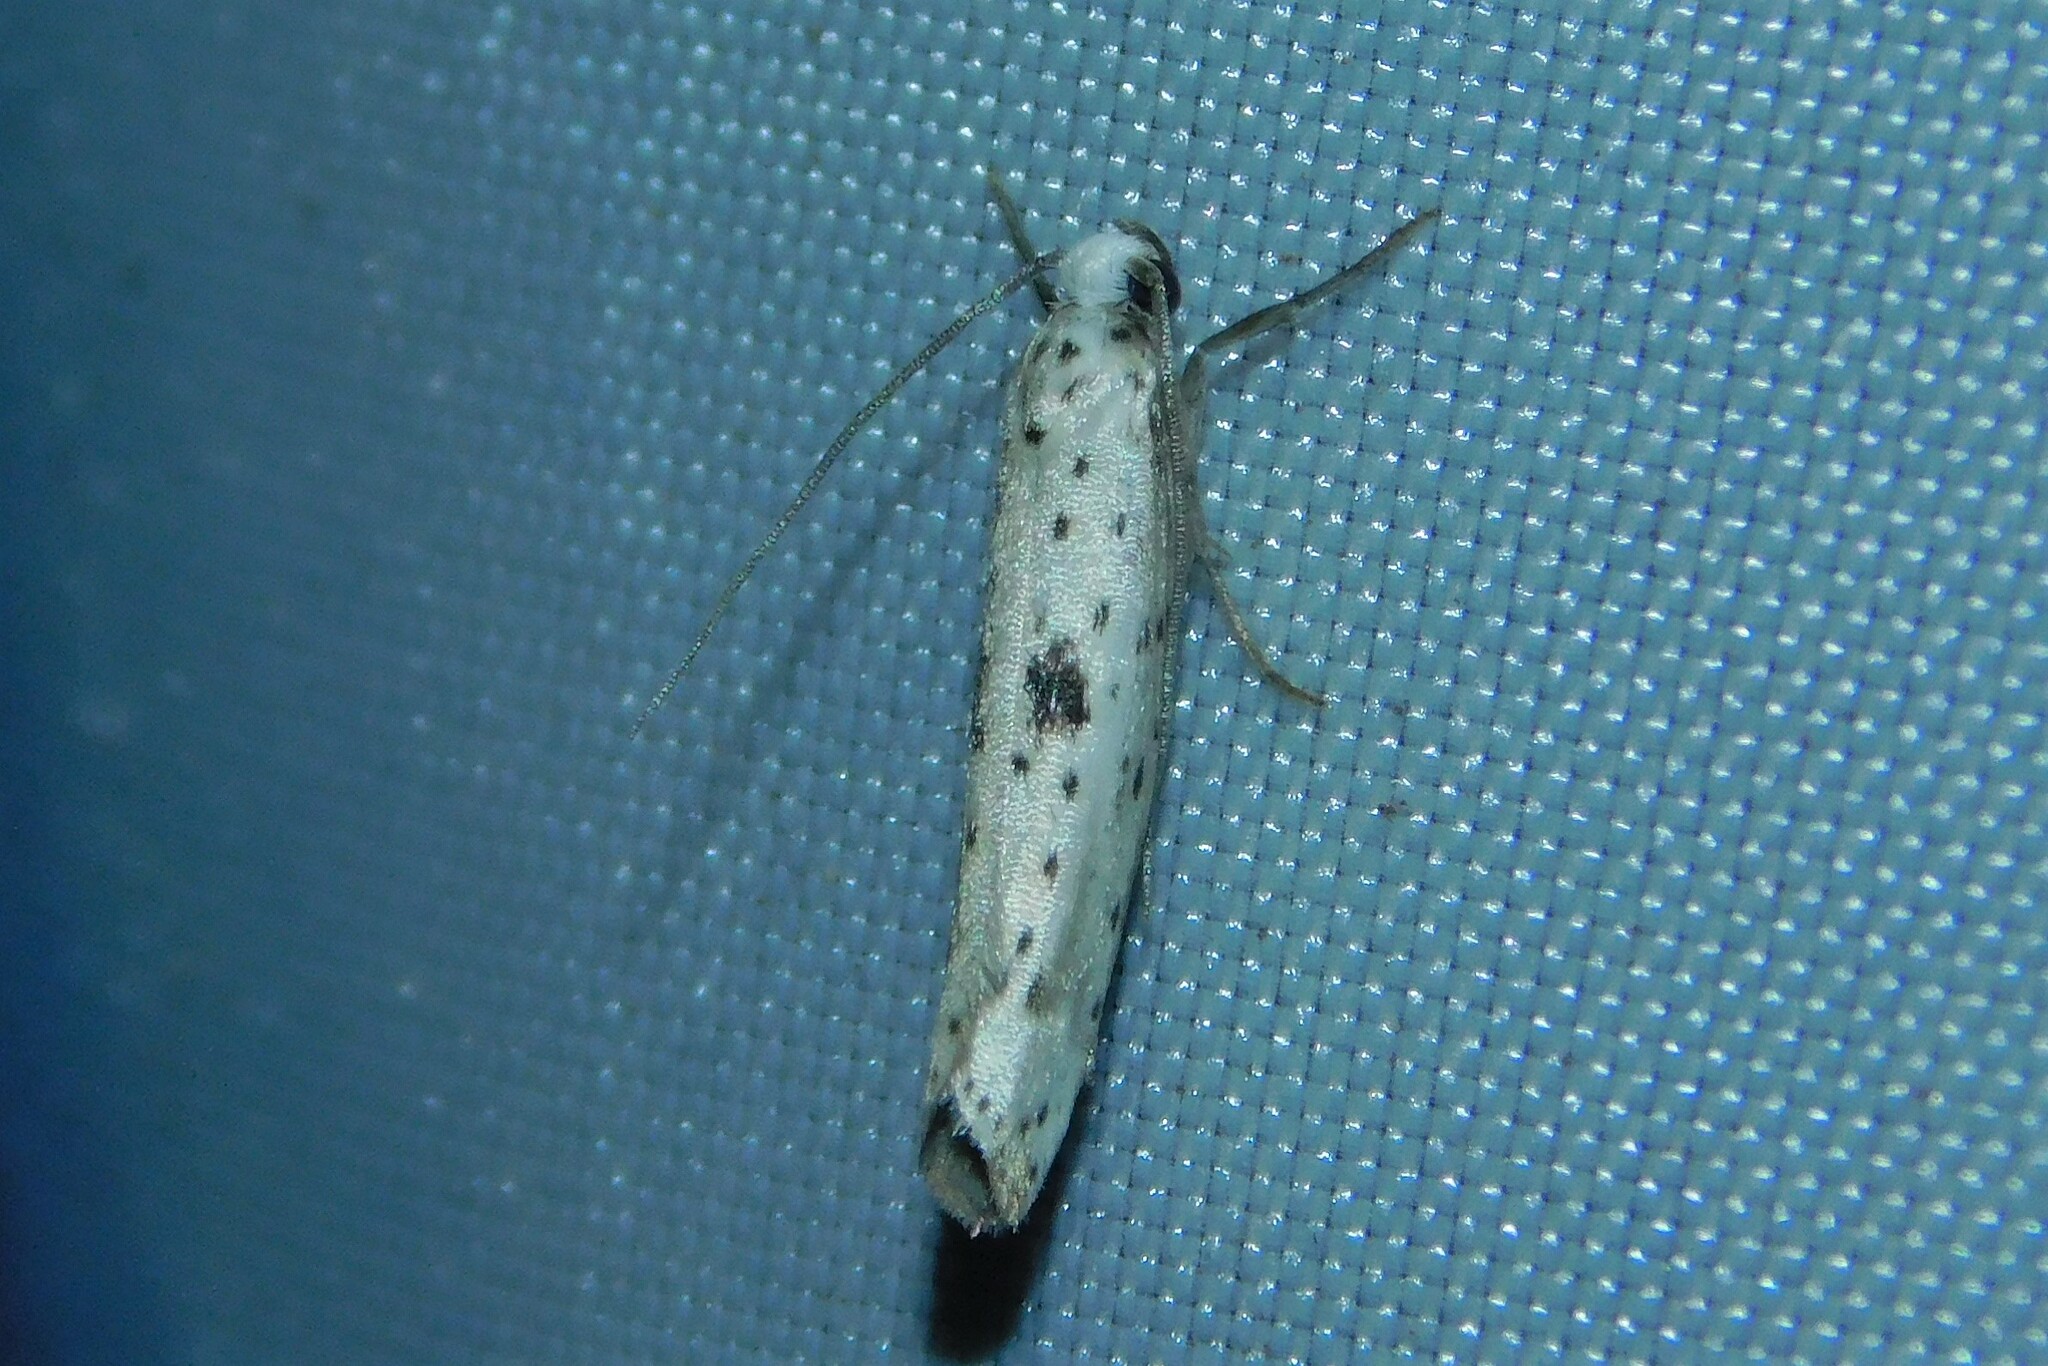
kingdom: Animalia
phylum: Arthropoda
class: Insecta
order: Lepidoptera
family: Yponomeutidae
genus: Yponomeuta
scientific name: Yponomeuta plumbella
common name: Black-tipped ermine
